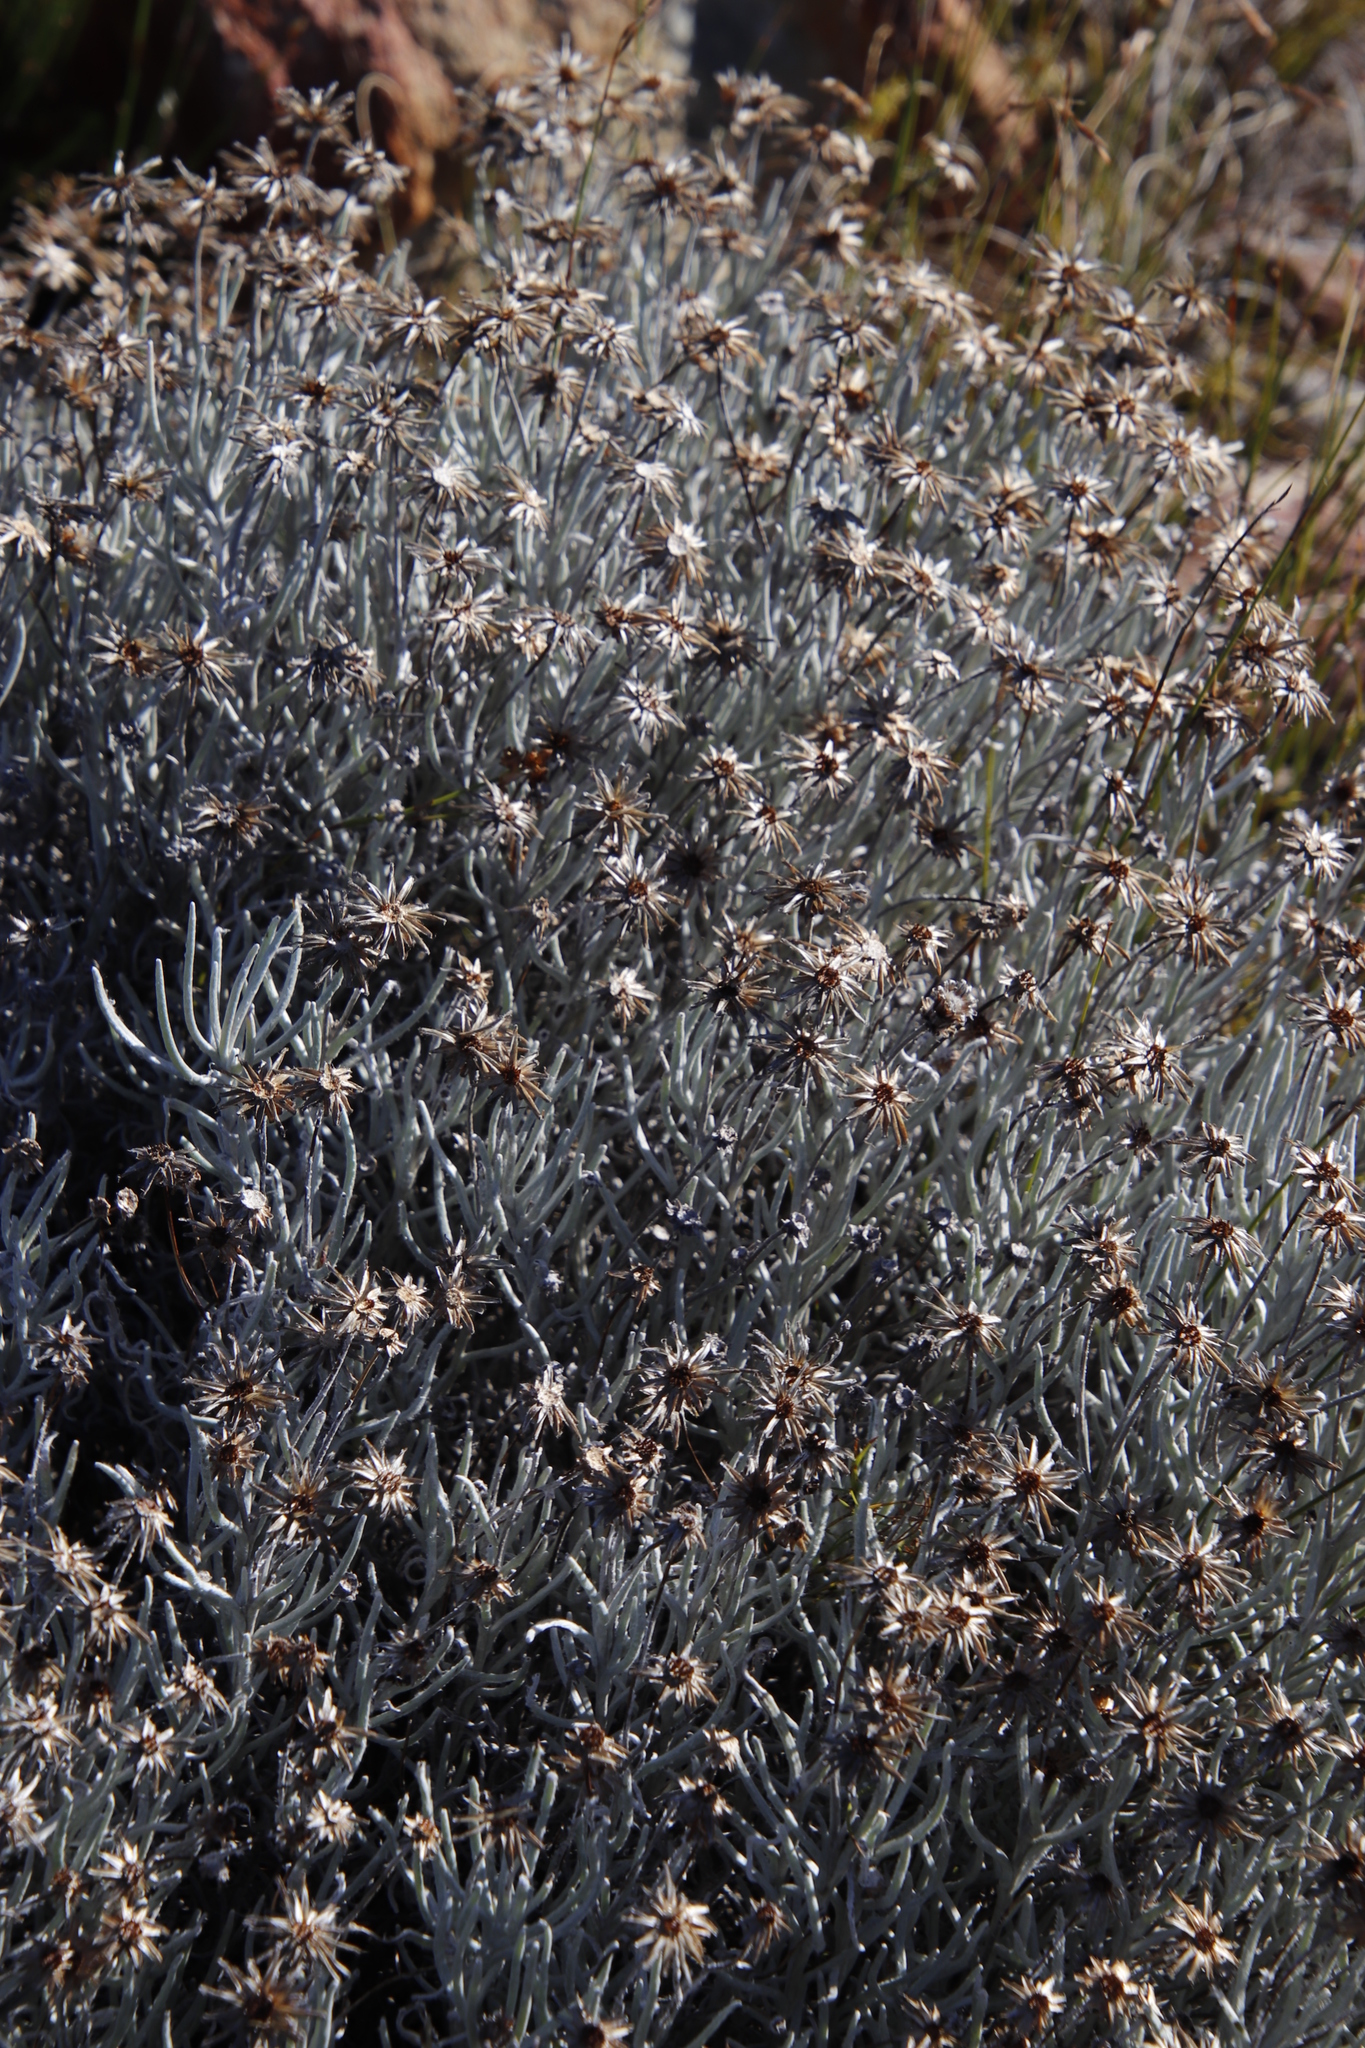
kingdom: Plantae
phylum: Tracheophyta
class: Magnoliopsida
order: Asterales
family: Asteraceae
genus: Syncarpha
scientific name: Syncarpha gnaphaloides
